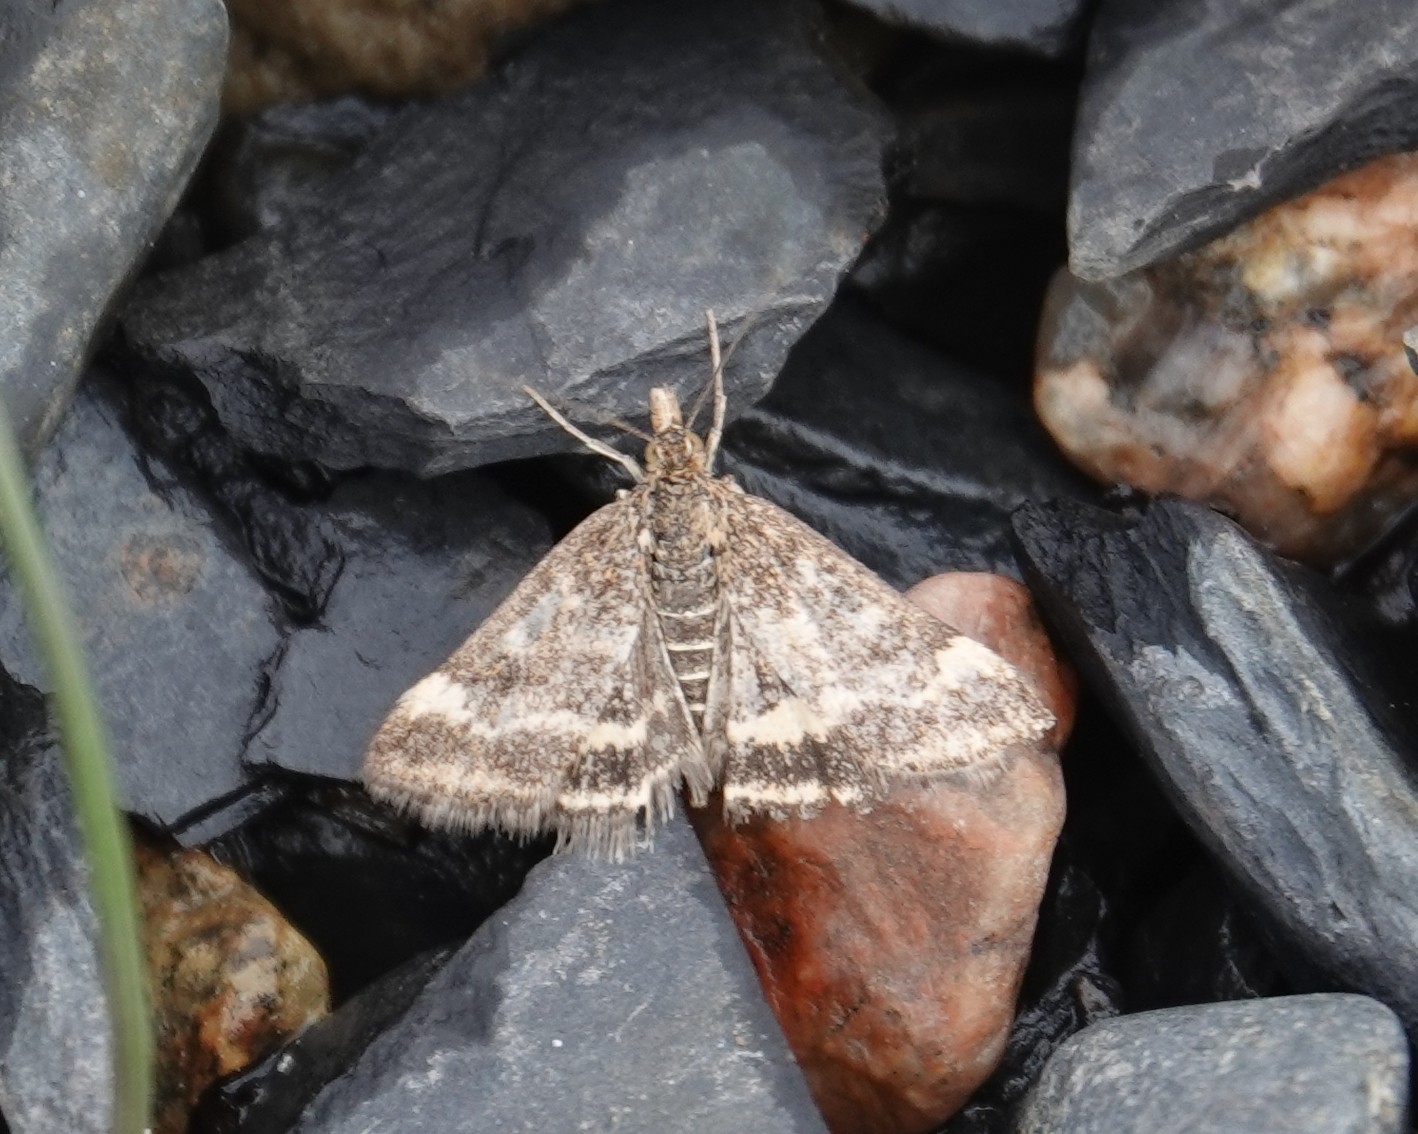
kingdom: Animalia
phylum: Arthropoda
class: Insecta
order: Lepidoptera
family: Crambidae
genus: Pyrausta
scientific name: Pyrausta despicata
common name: Straw-barred pearl
